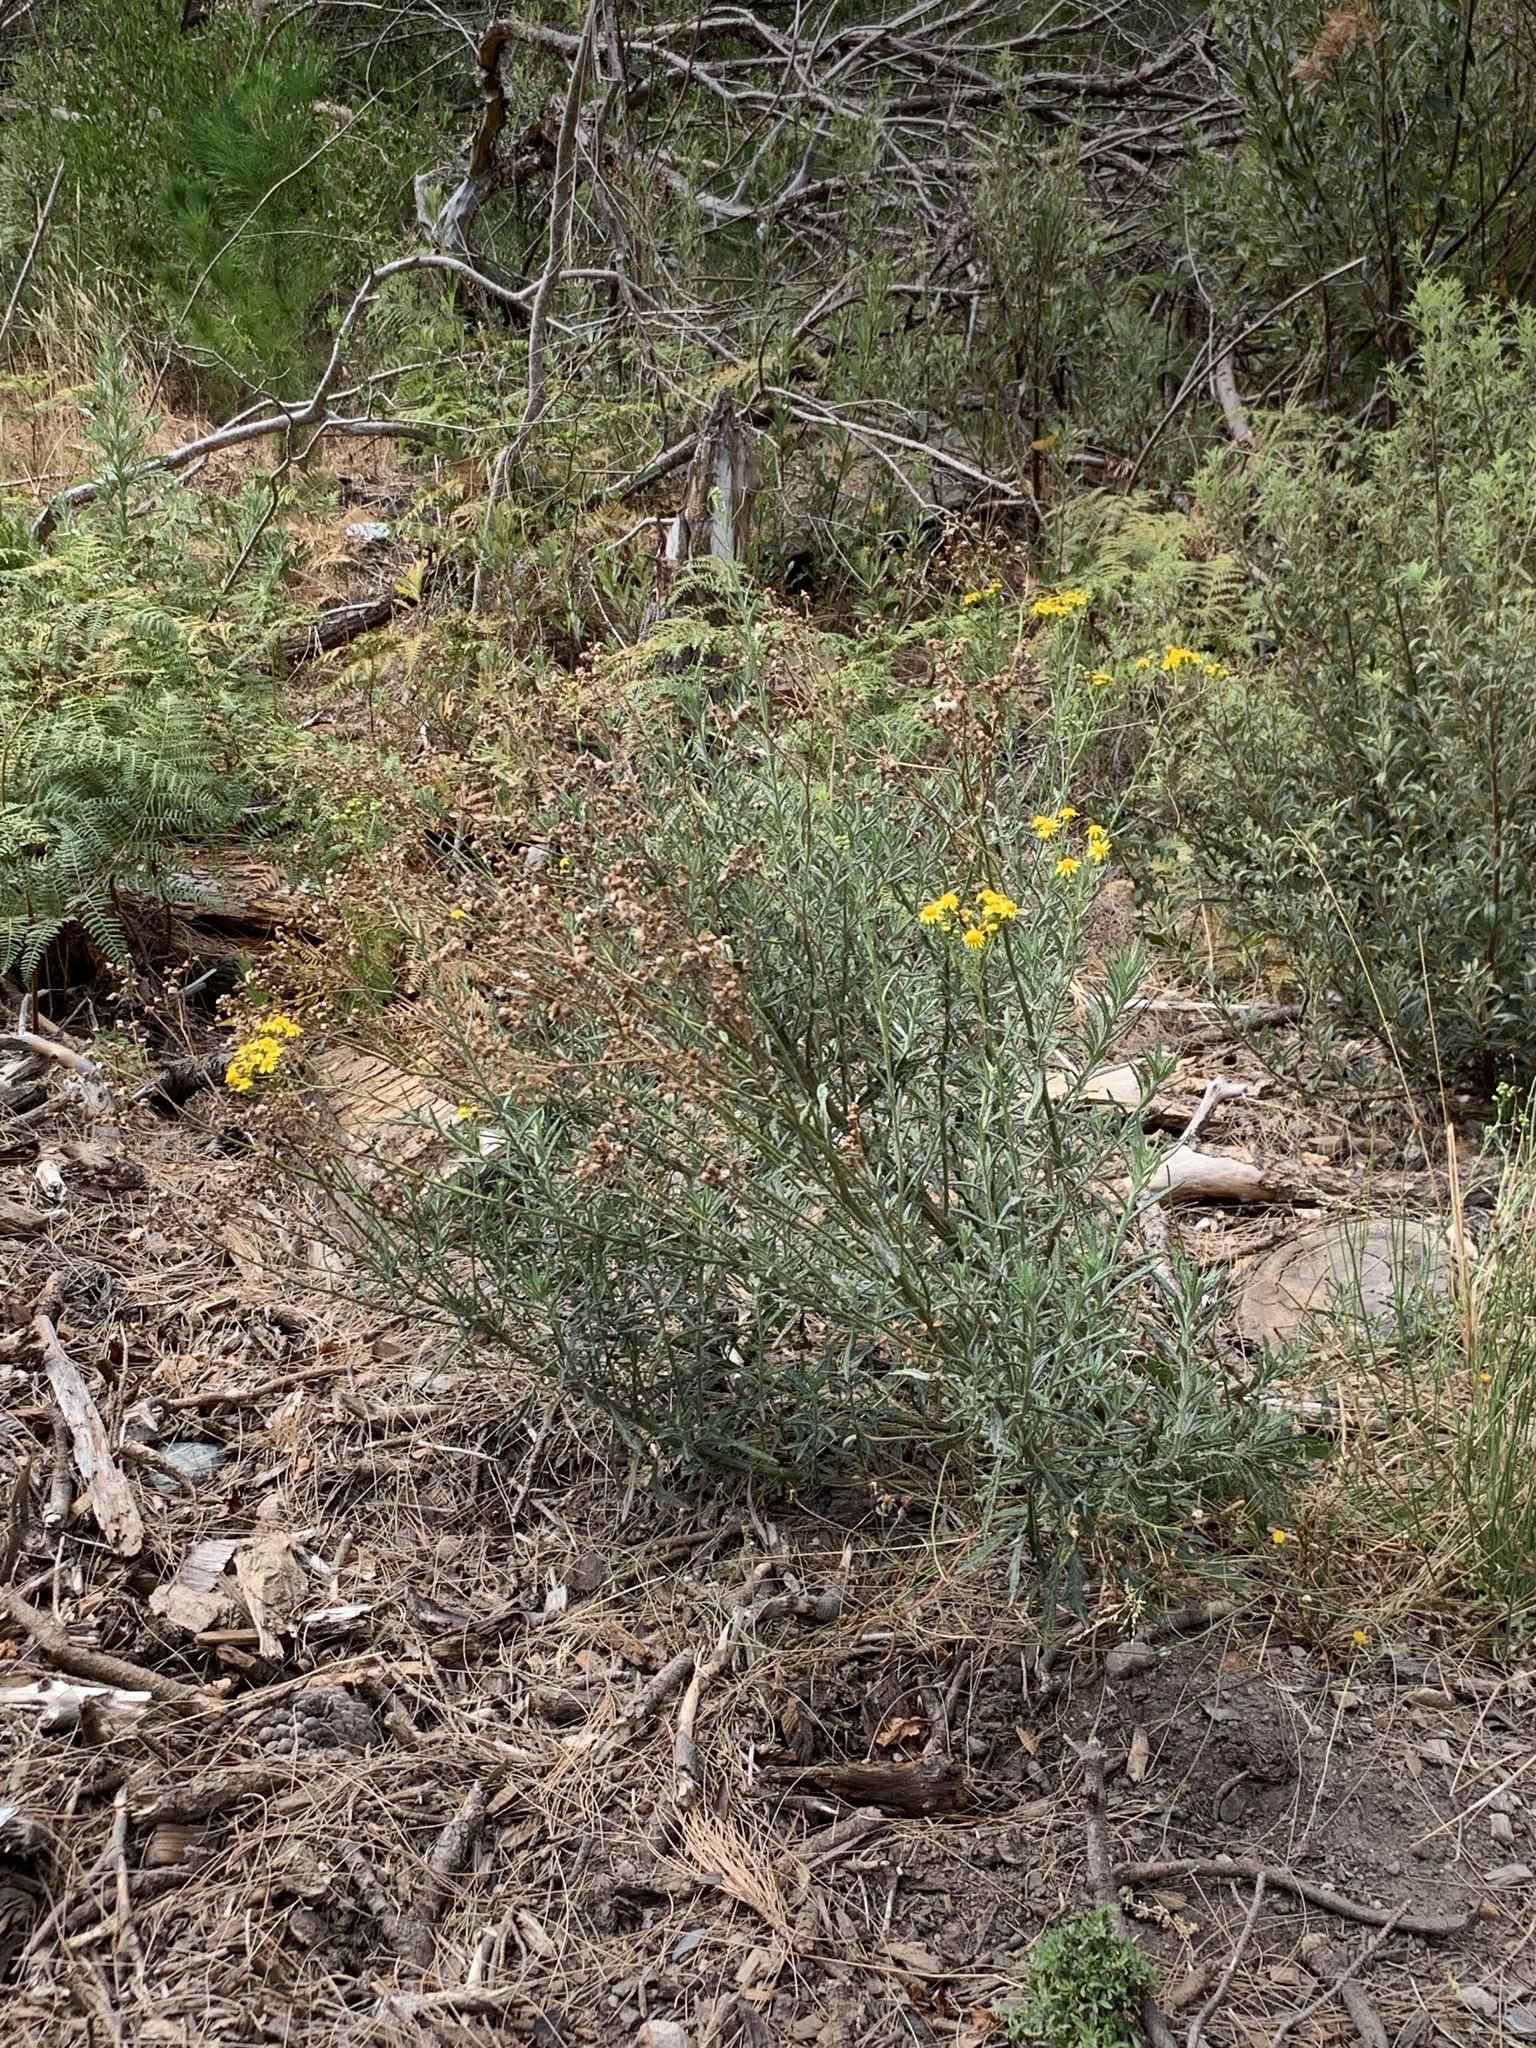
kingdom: Plantae
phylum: Tracheophyta
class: Magnoliopsida
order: Asterales
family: Asteraceae
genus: Senecio
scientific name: Senecio pterophorus
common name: Shoddy ragwort
